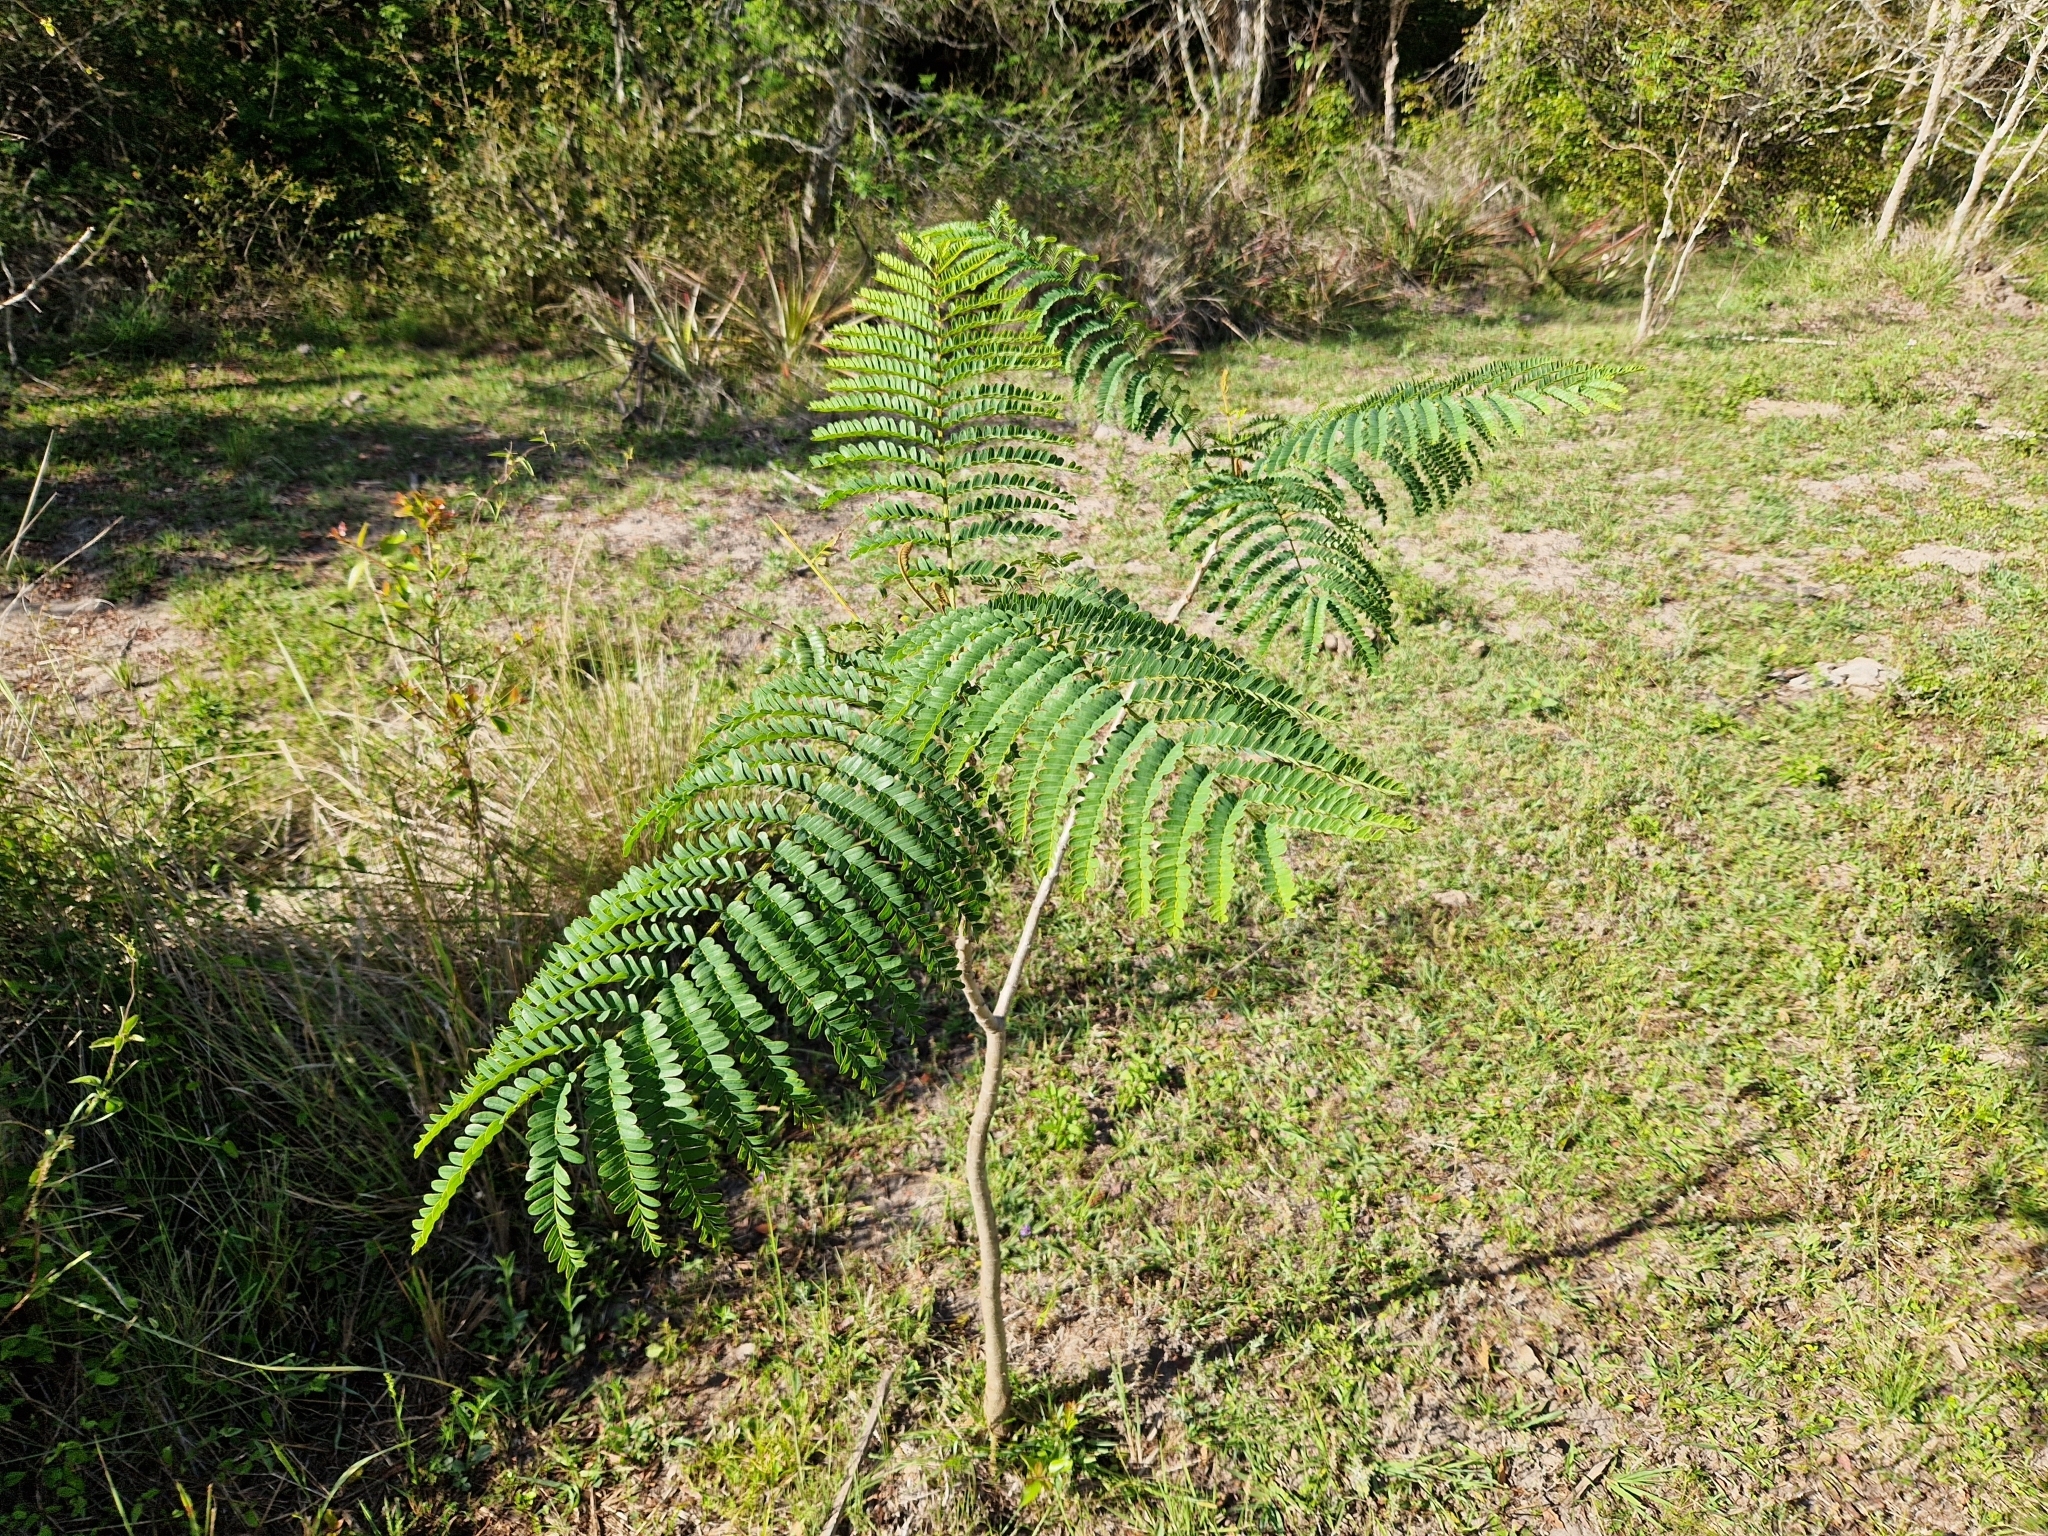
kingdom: Plantae
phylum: Tracheophyta
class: Magnoliopsida
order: Fabales
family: Fabaceae
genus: Peltophorum
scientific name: Peltophorum dubium
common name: Horsebush
